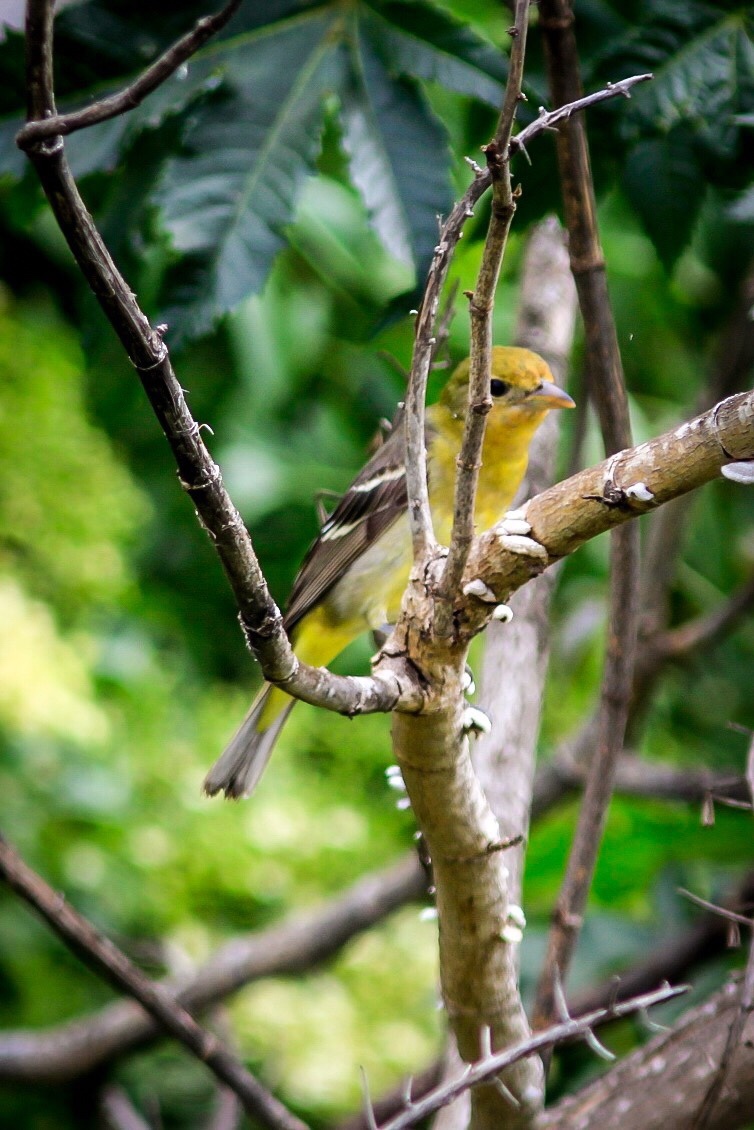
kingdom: Animalia
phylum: Chordata
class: Aves
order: Passeriformes
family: Icteridae
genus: Icterus
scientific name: Icterus bullockii
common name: Bullock's oriole
